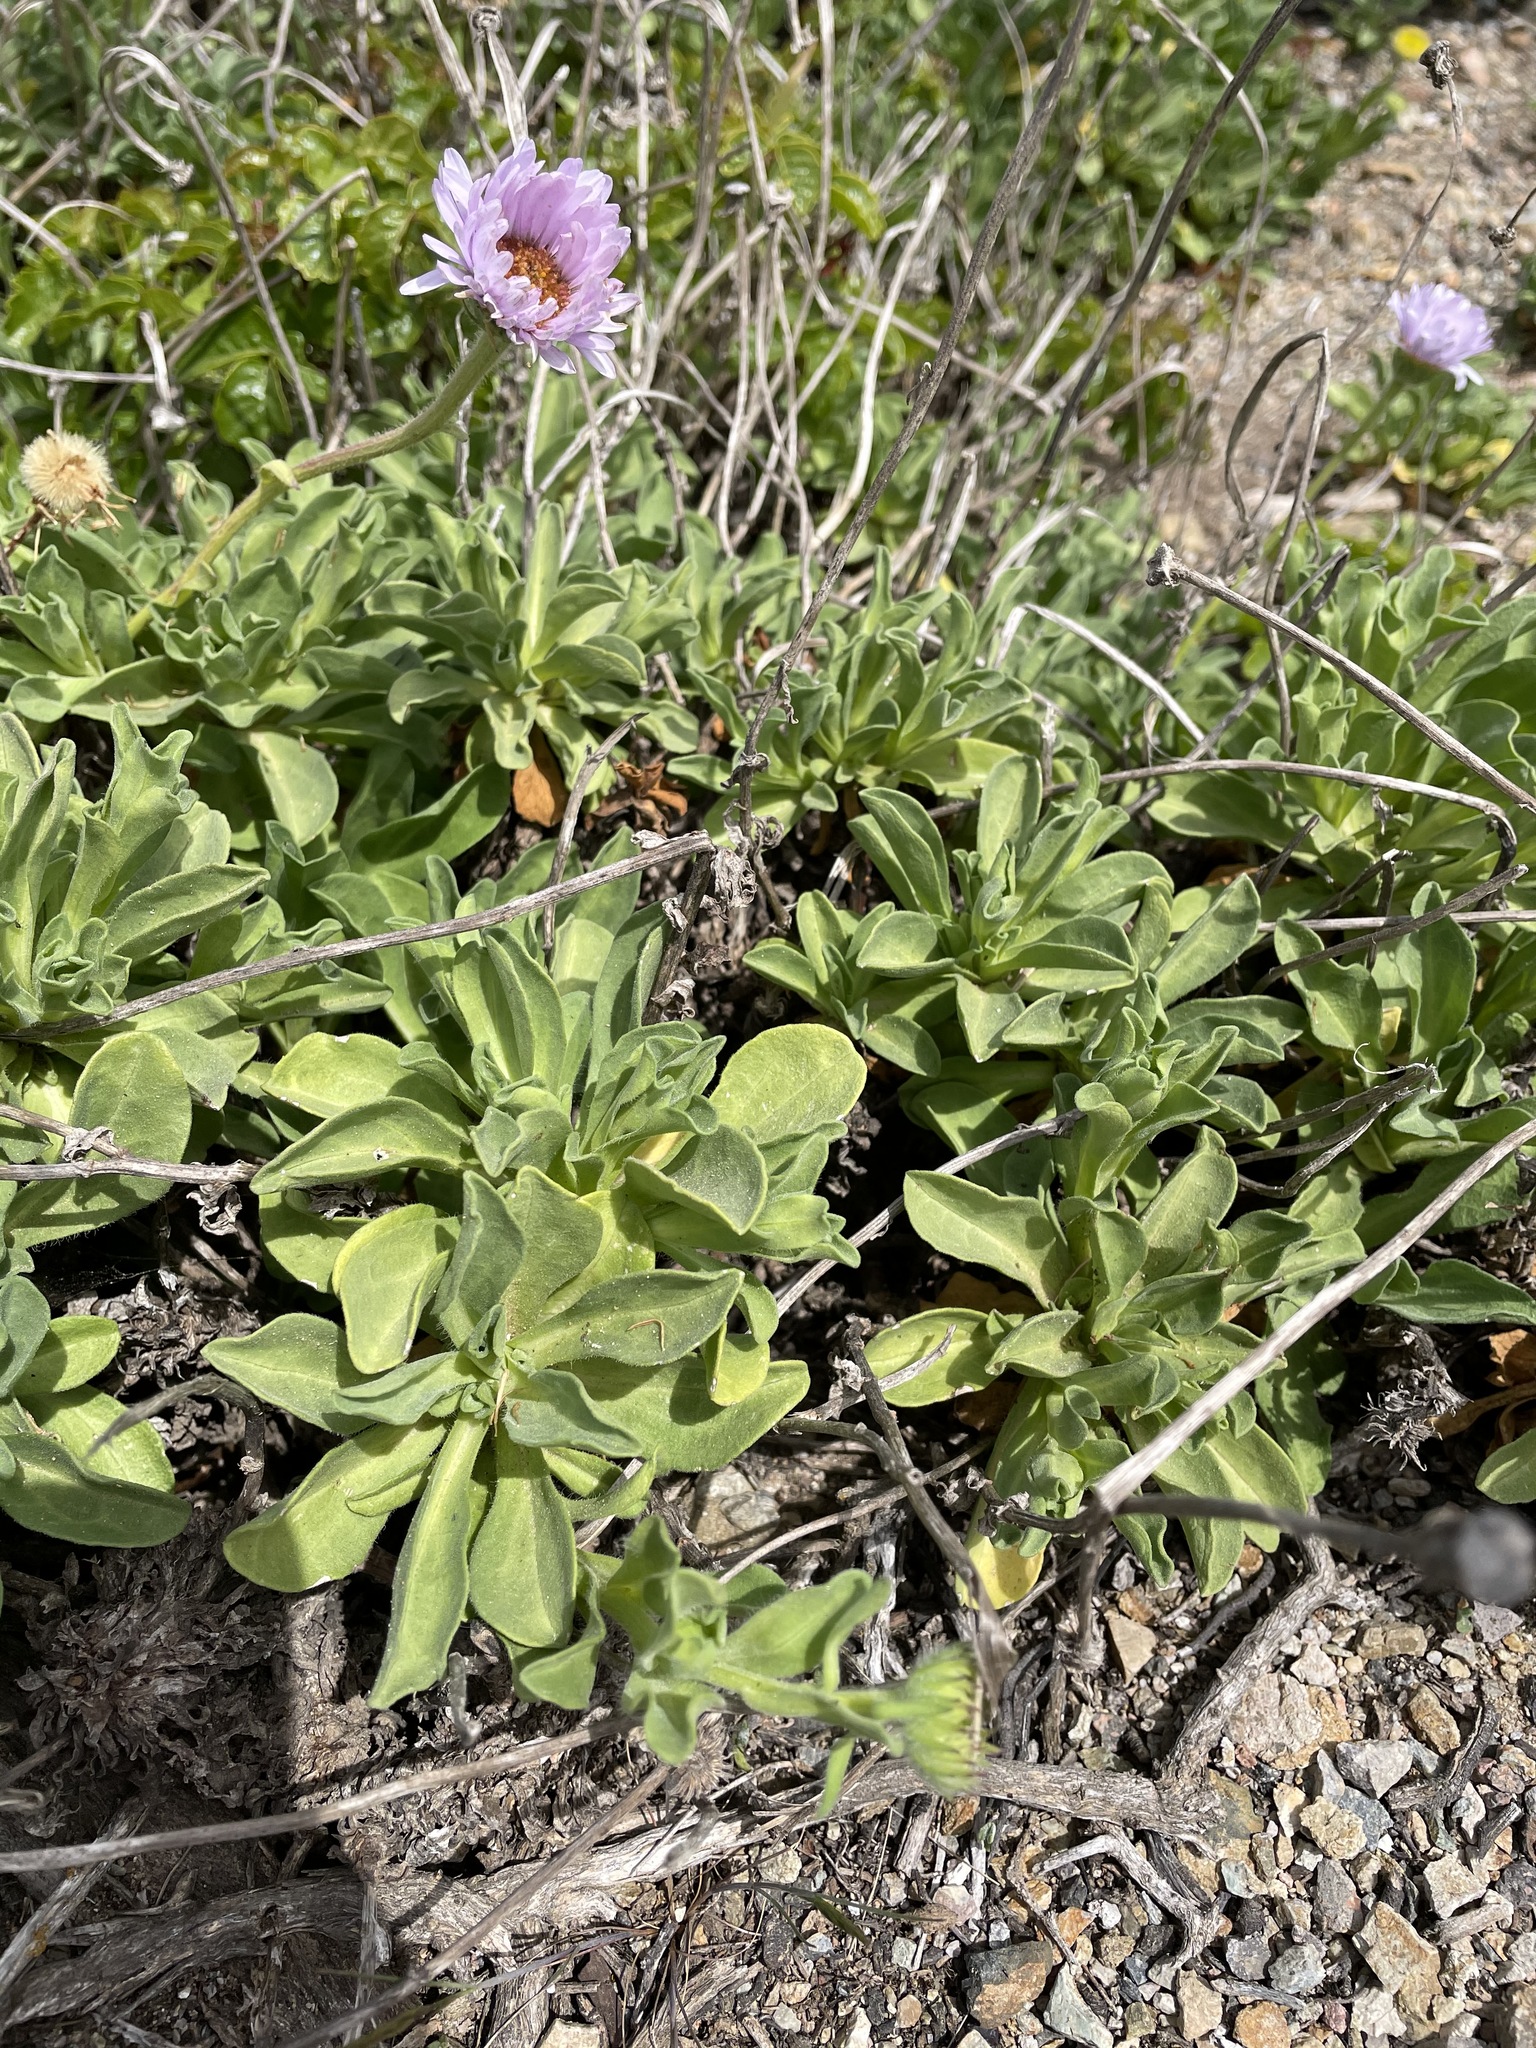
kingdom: Plantae
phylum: Tracheophyta
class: Magnoliopsida
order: Asterales
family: Asteraceae
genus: Erigeron
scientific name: Erigeron glaucus
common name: Seaside daisy
